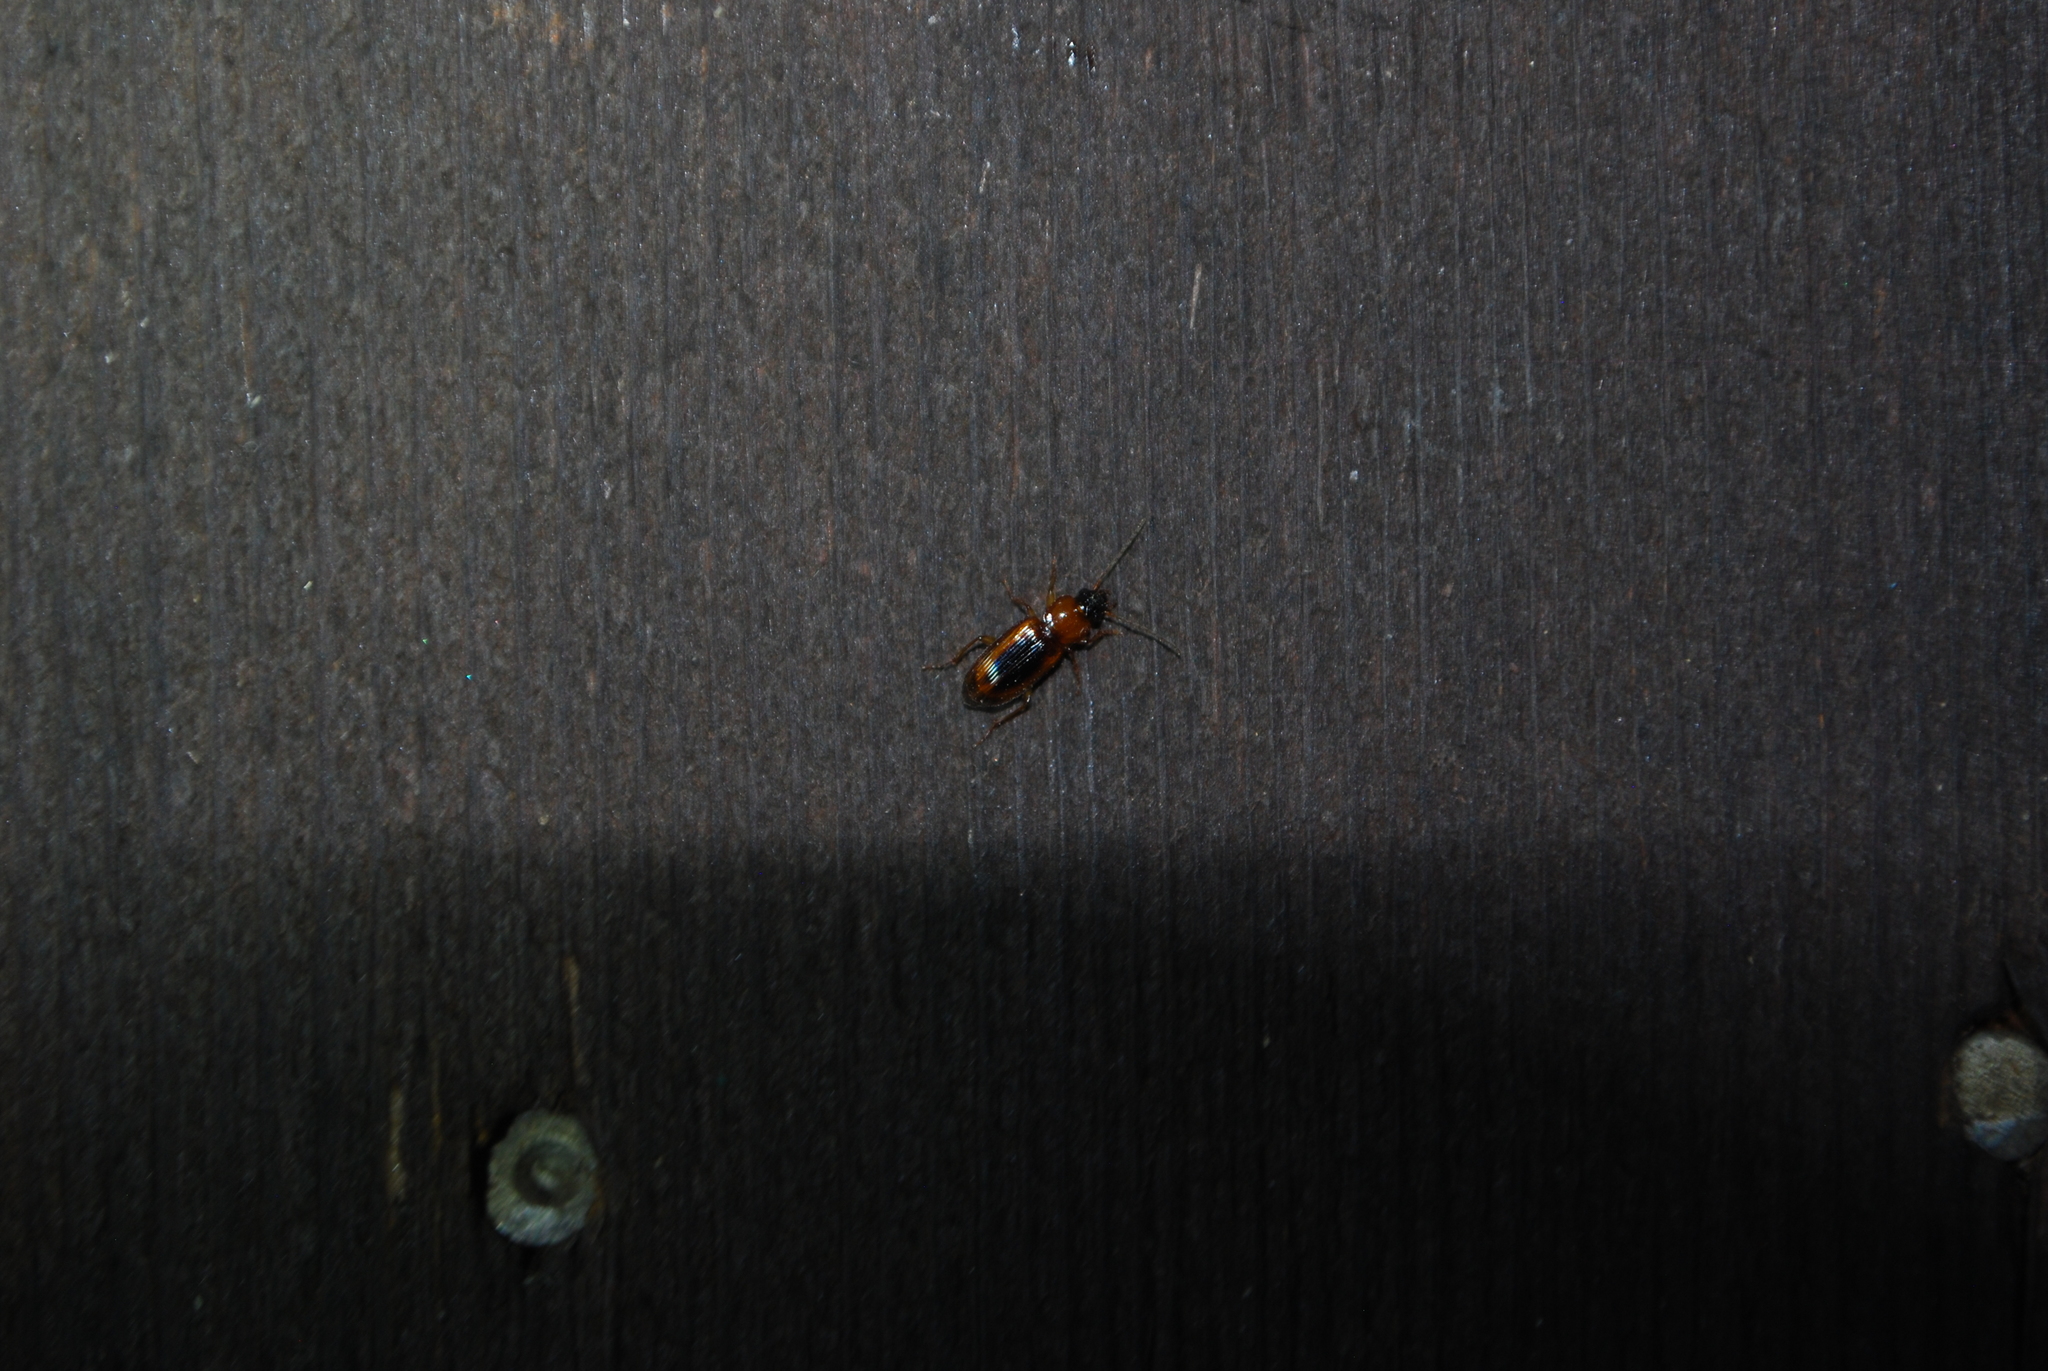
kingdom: Animalia
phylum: Arthropoda
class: Insecta
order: Coleoptera
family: Carabidae
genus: Stenolophus
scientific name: Stenolophus dissimilis
